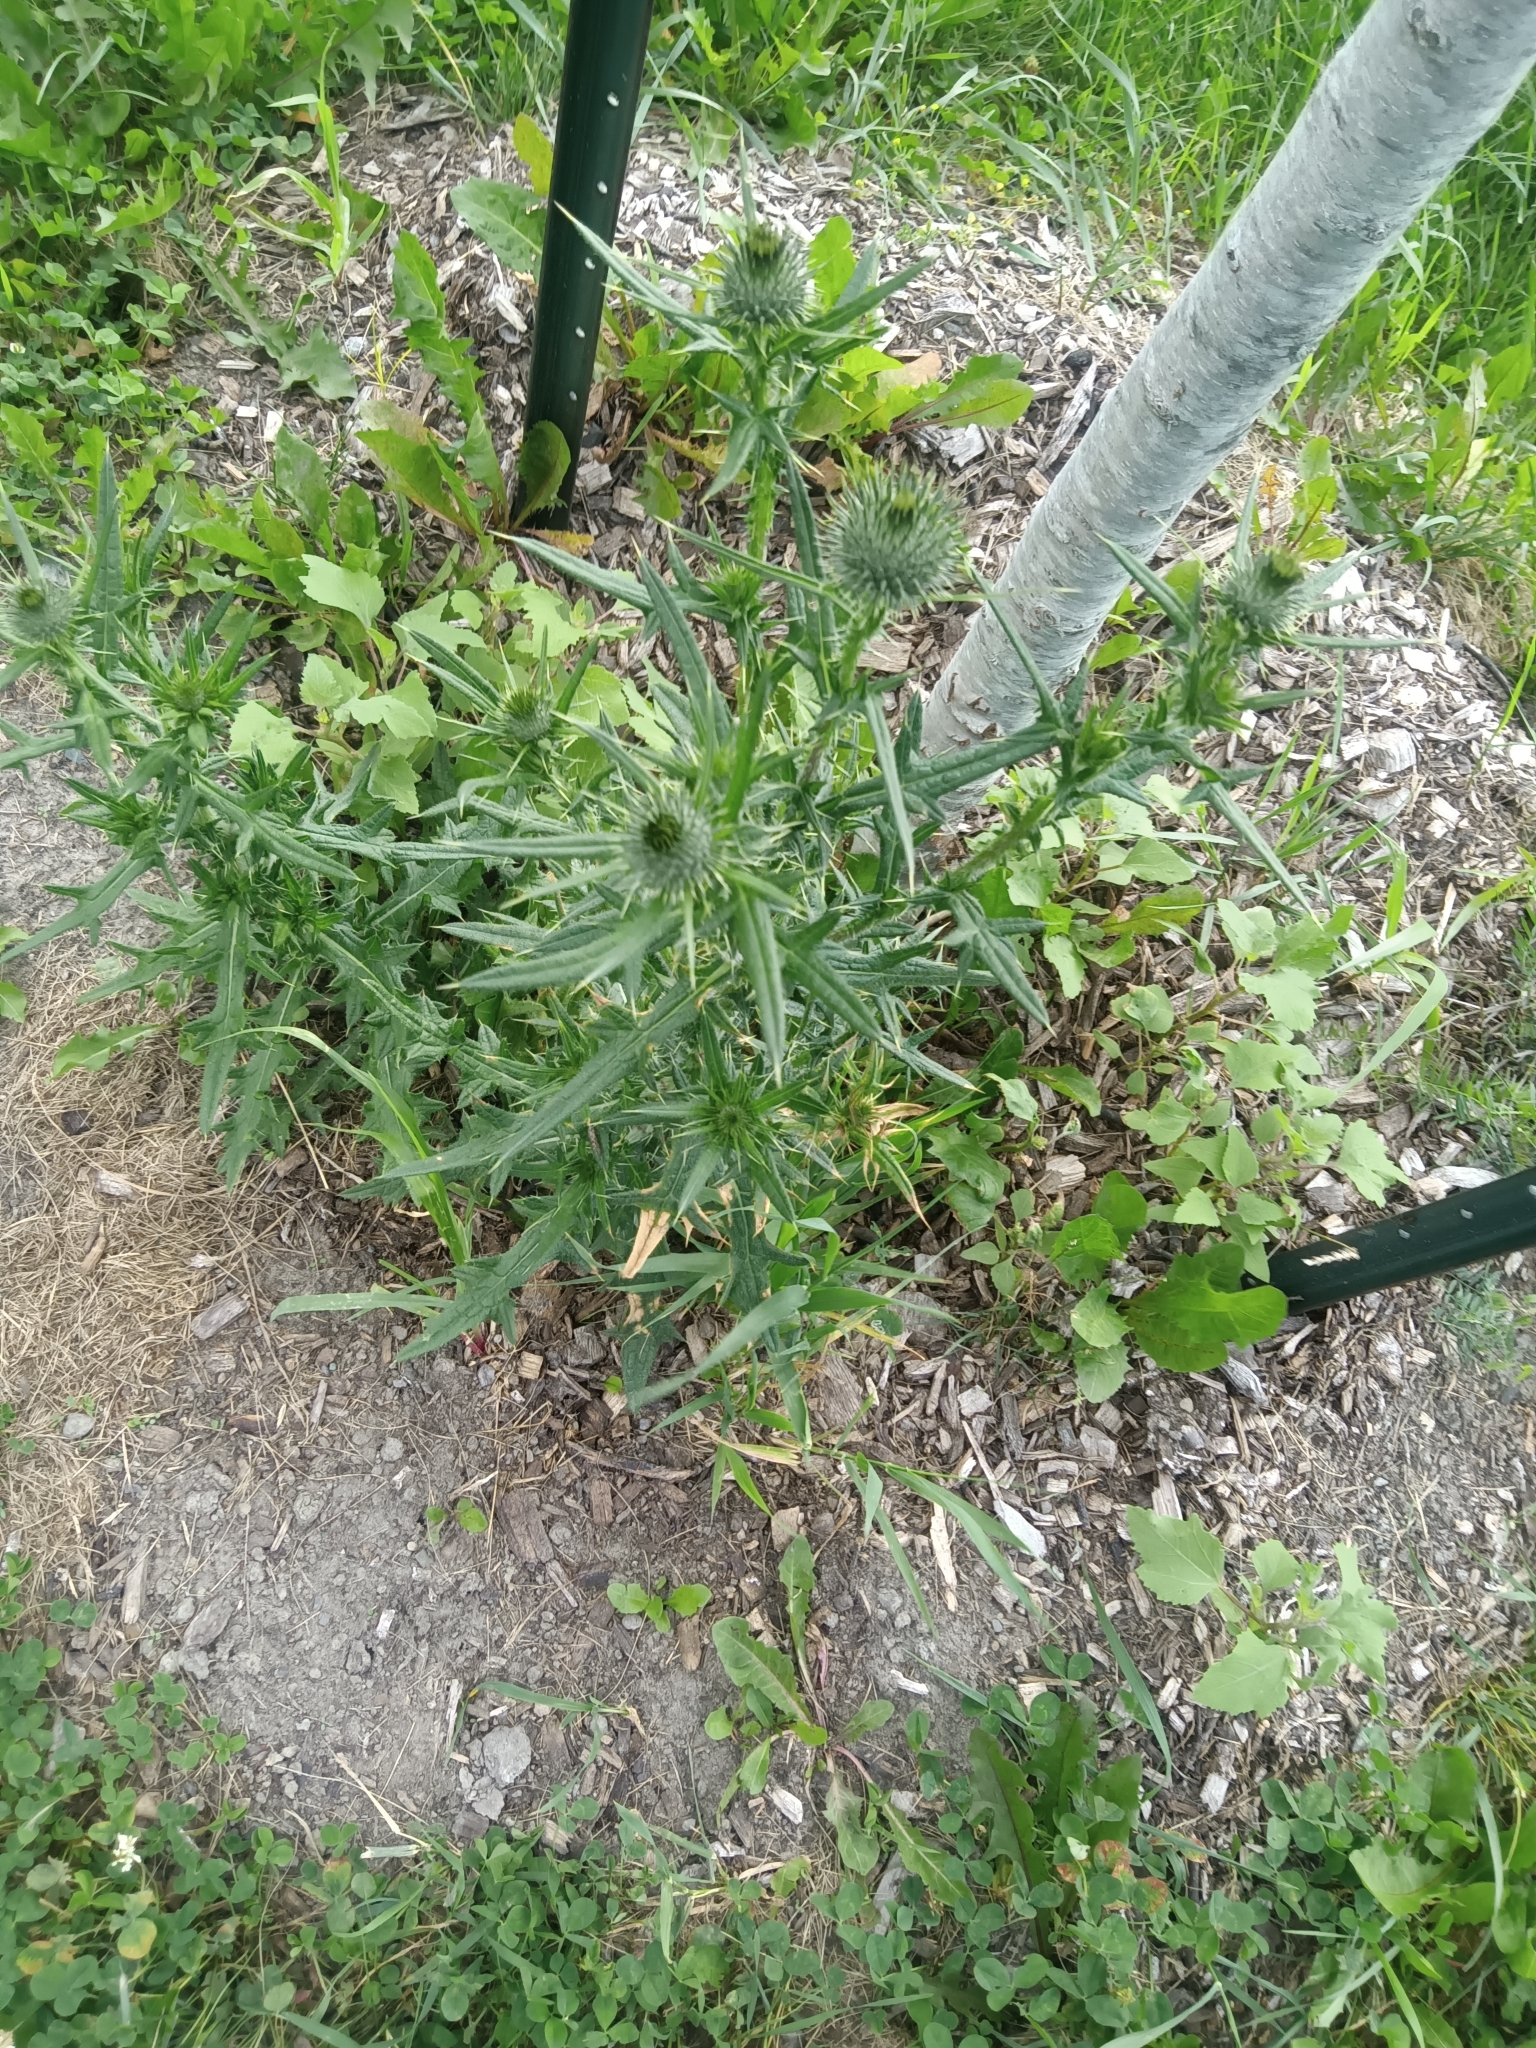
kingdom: Plantae
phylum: Tracheophyta
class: Magnoliopsida
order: Asterales
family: Asteraceae
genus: Cirsium
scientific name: Cirsium vulgare
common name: Bull thistle
